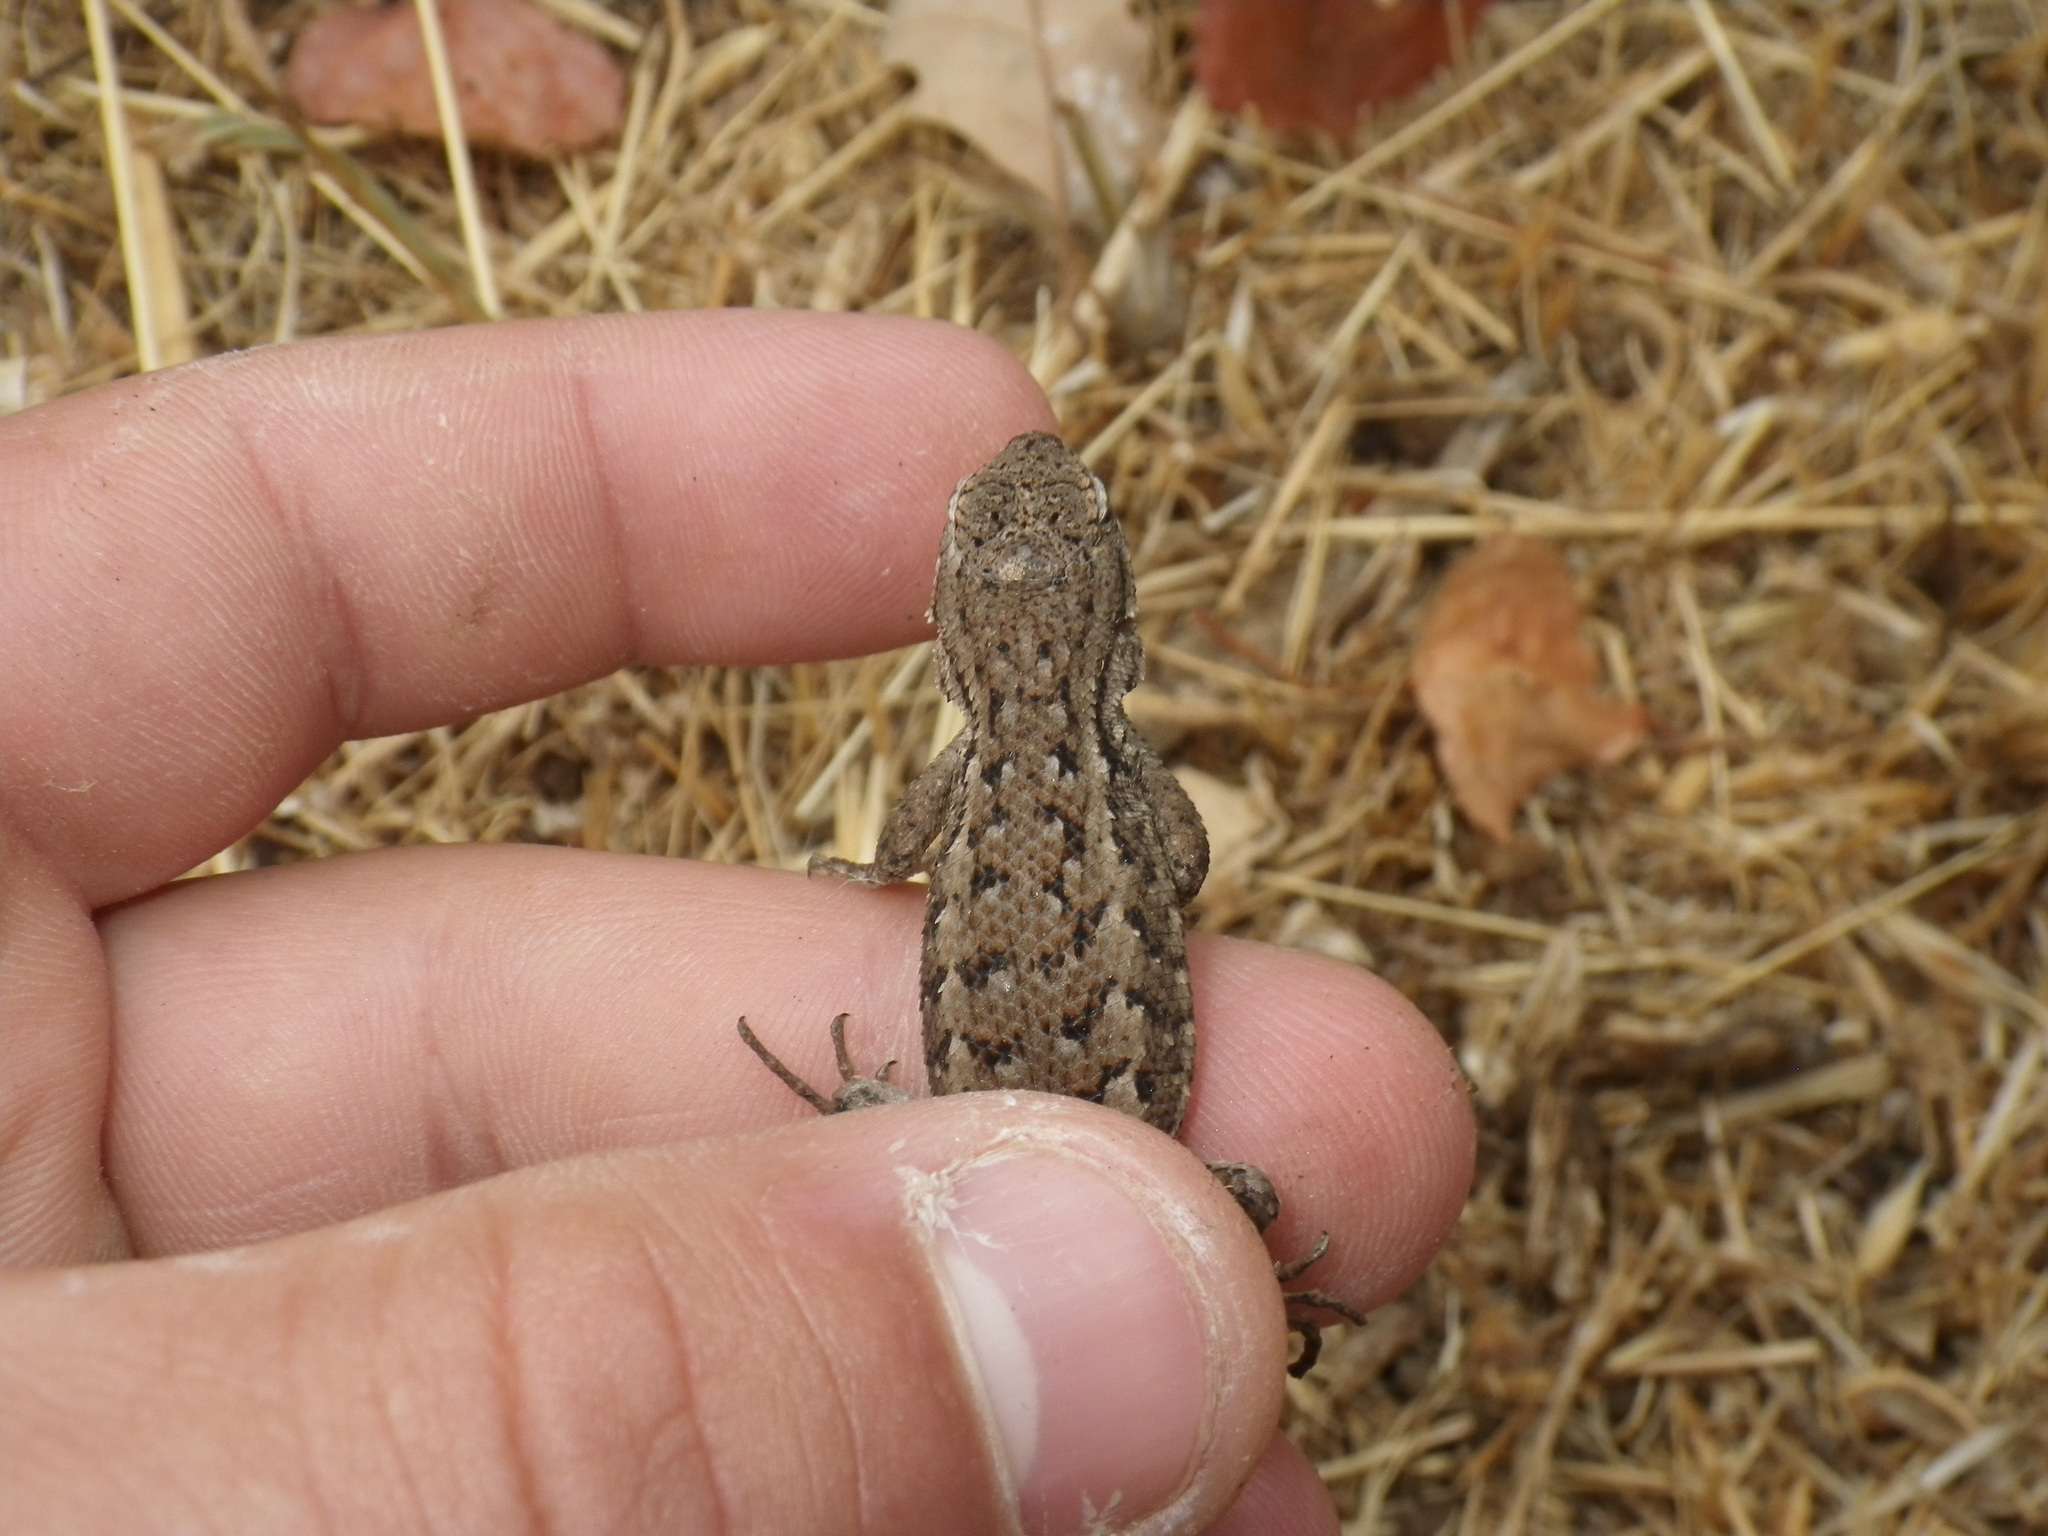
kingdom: Animalia
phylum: Chordata
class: Squamata
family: Phrynosomatidae
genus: Sceloporus
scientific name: Sceloporus occidentalis
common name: Western fence lizard
